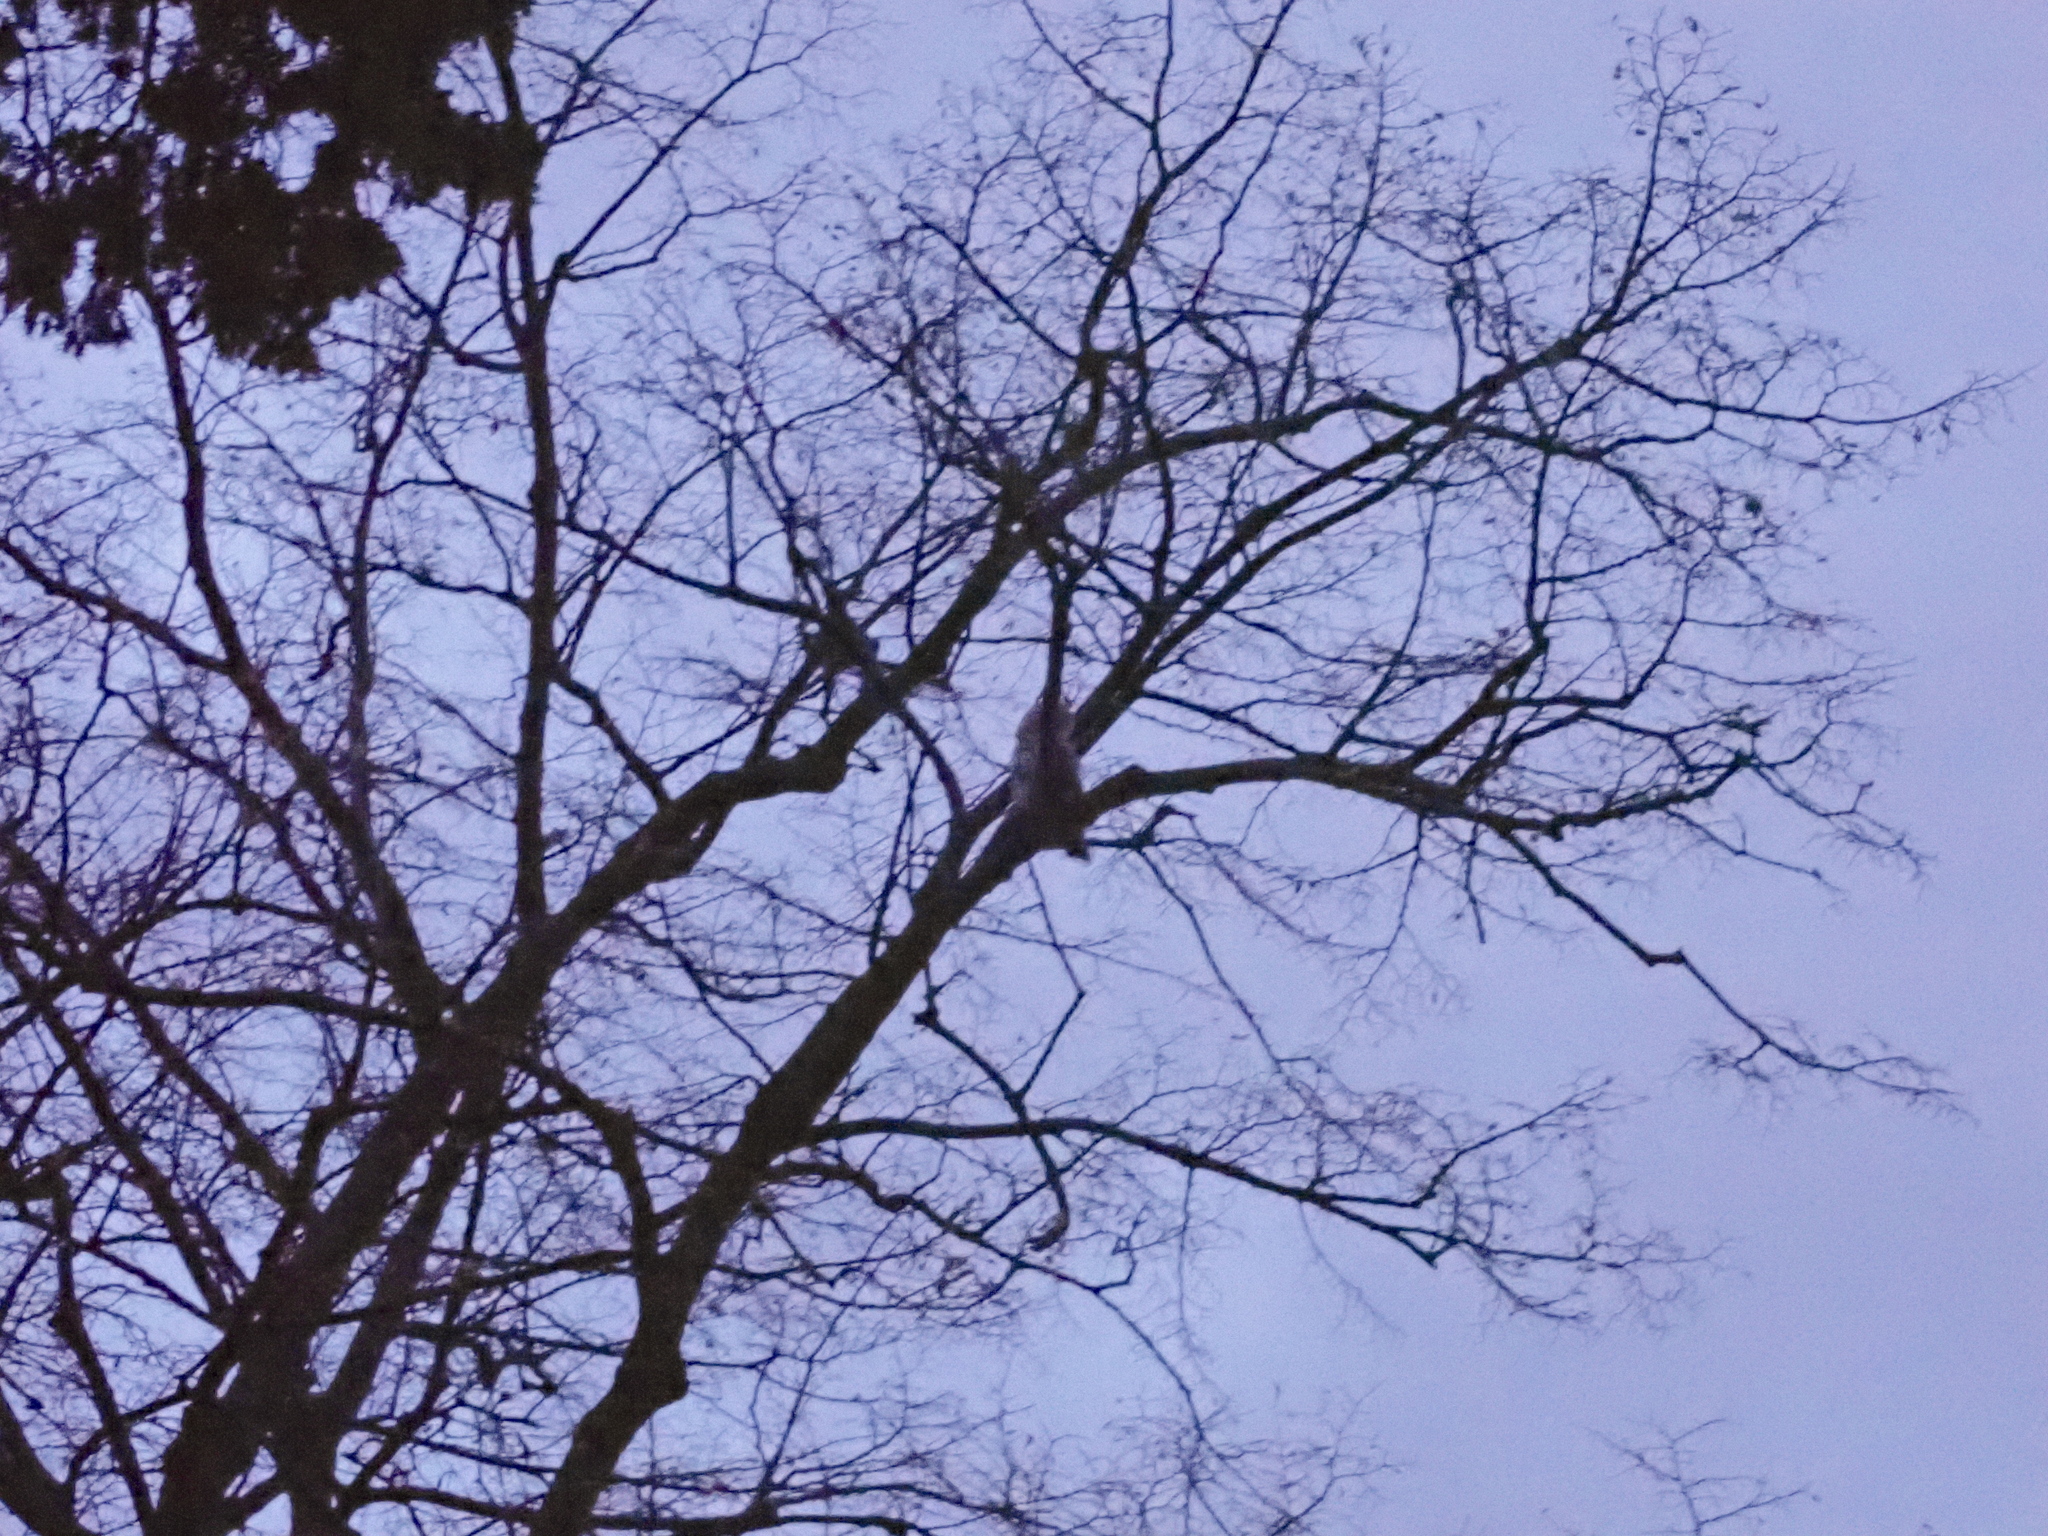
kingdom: Animalia
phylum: Chordata
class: Aves
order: Strigiformes
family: Strigidae
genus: Asio
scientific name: Asio otus
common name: Long-eared owl
